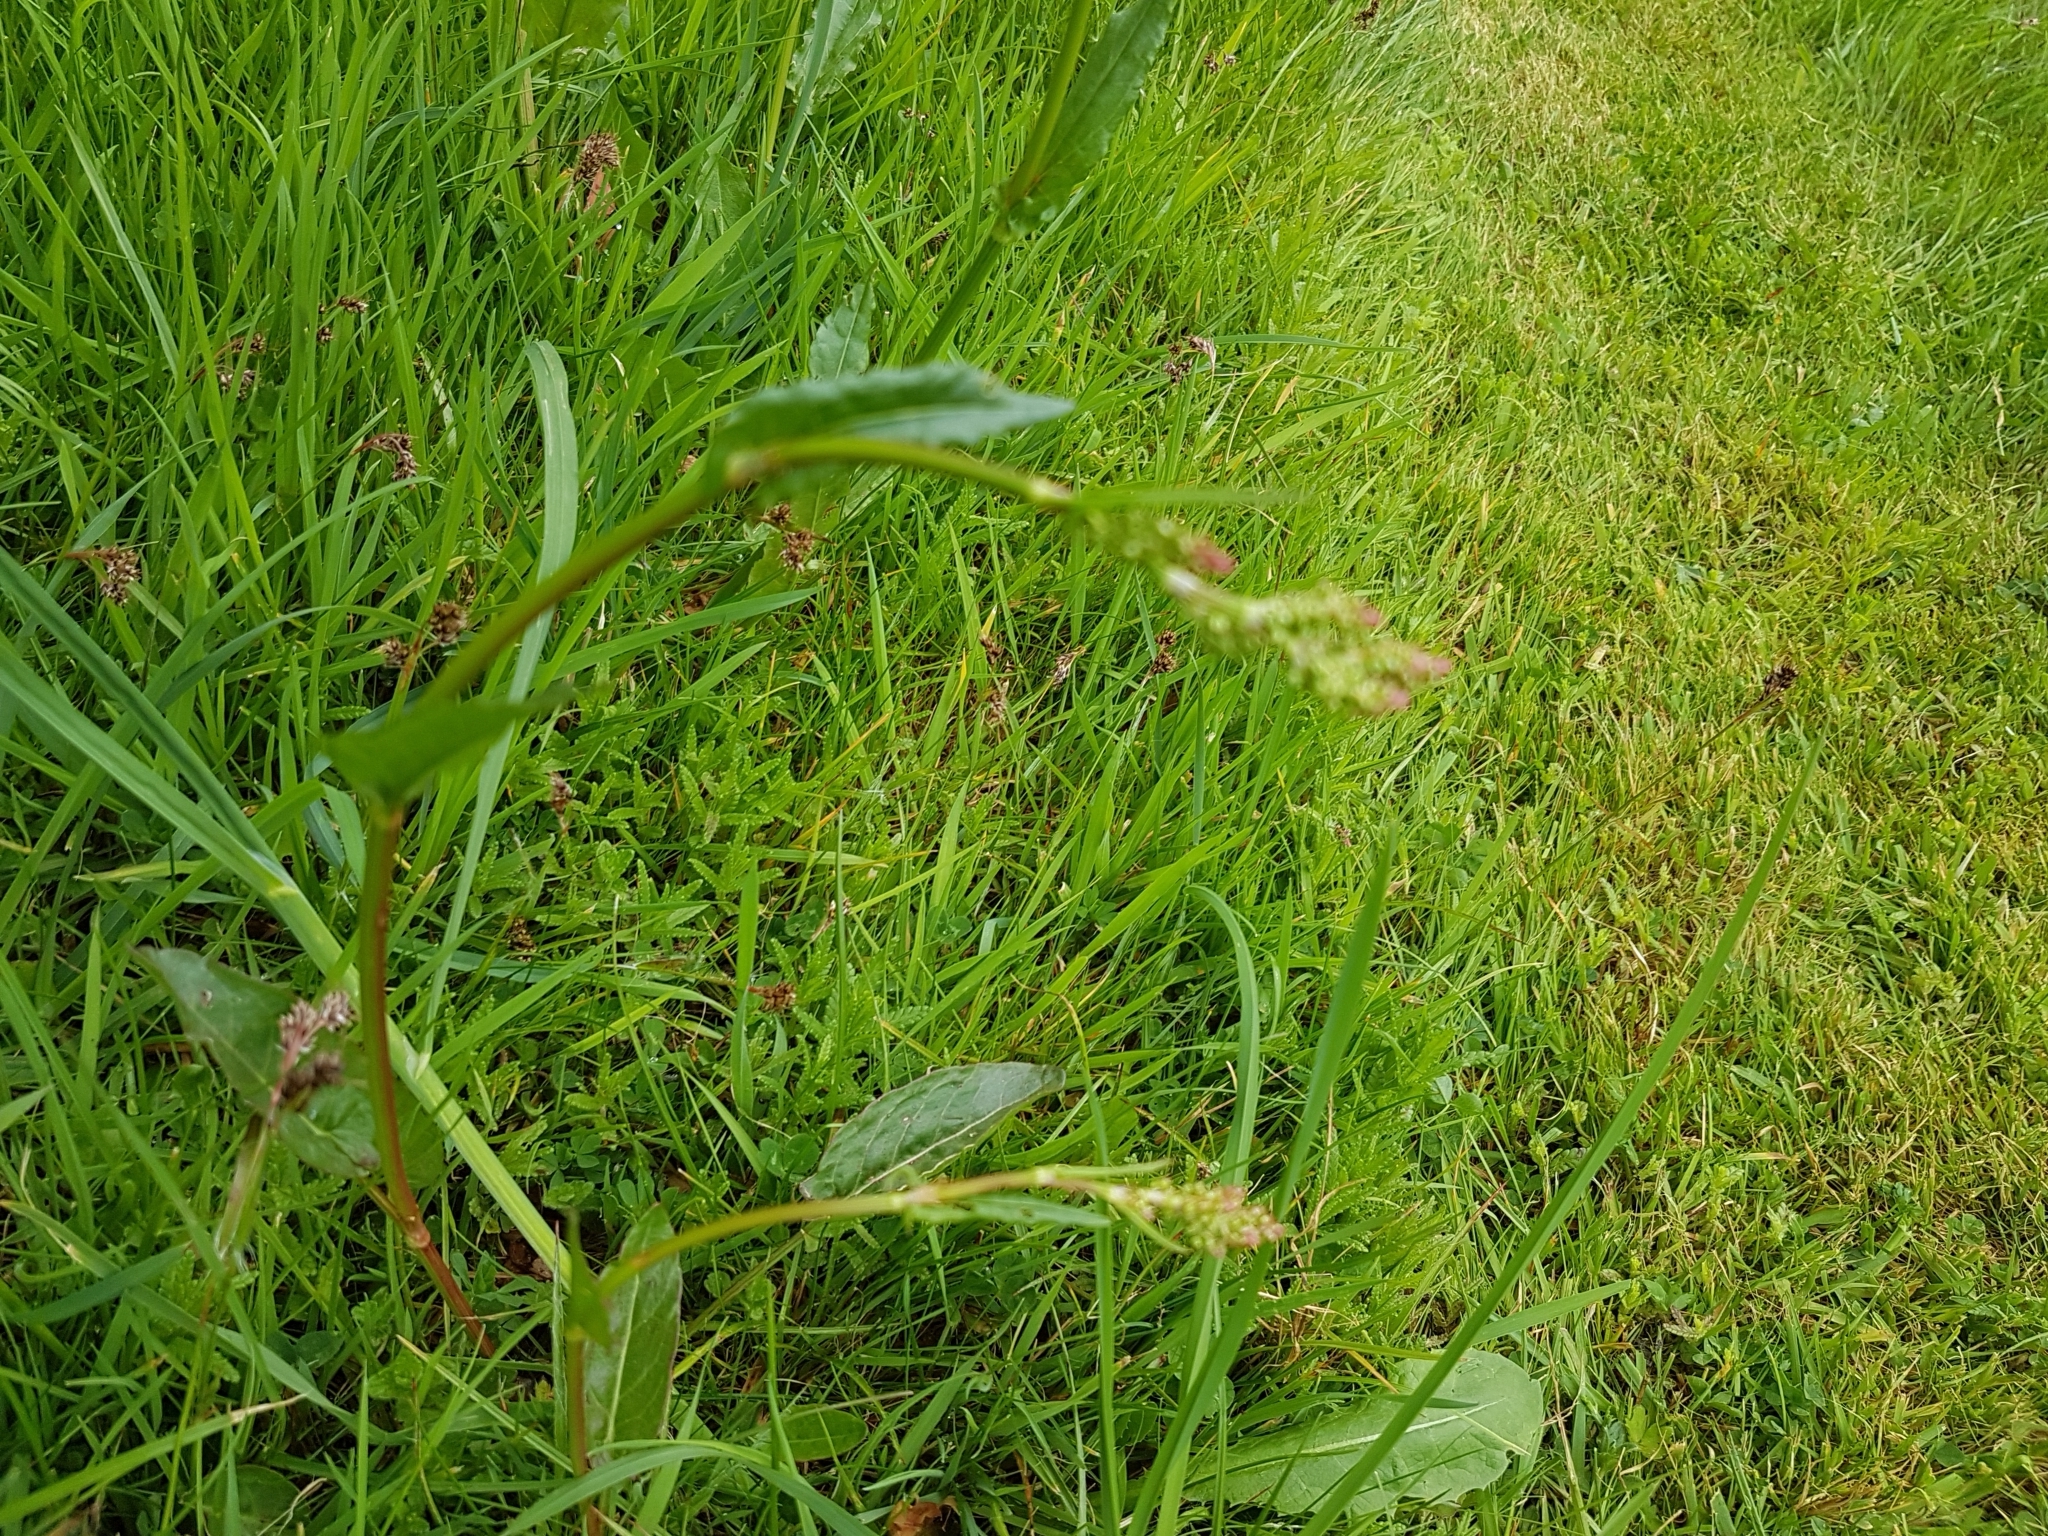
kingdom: Plantae
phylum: Tracheophyta
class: Magnoliopsida
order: Caryophyllales
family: Polygonaceae
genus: Rumex
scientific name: Rumex acetosa
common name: Garden sorrel
